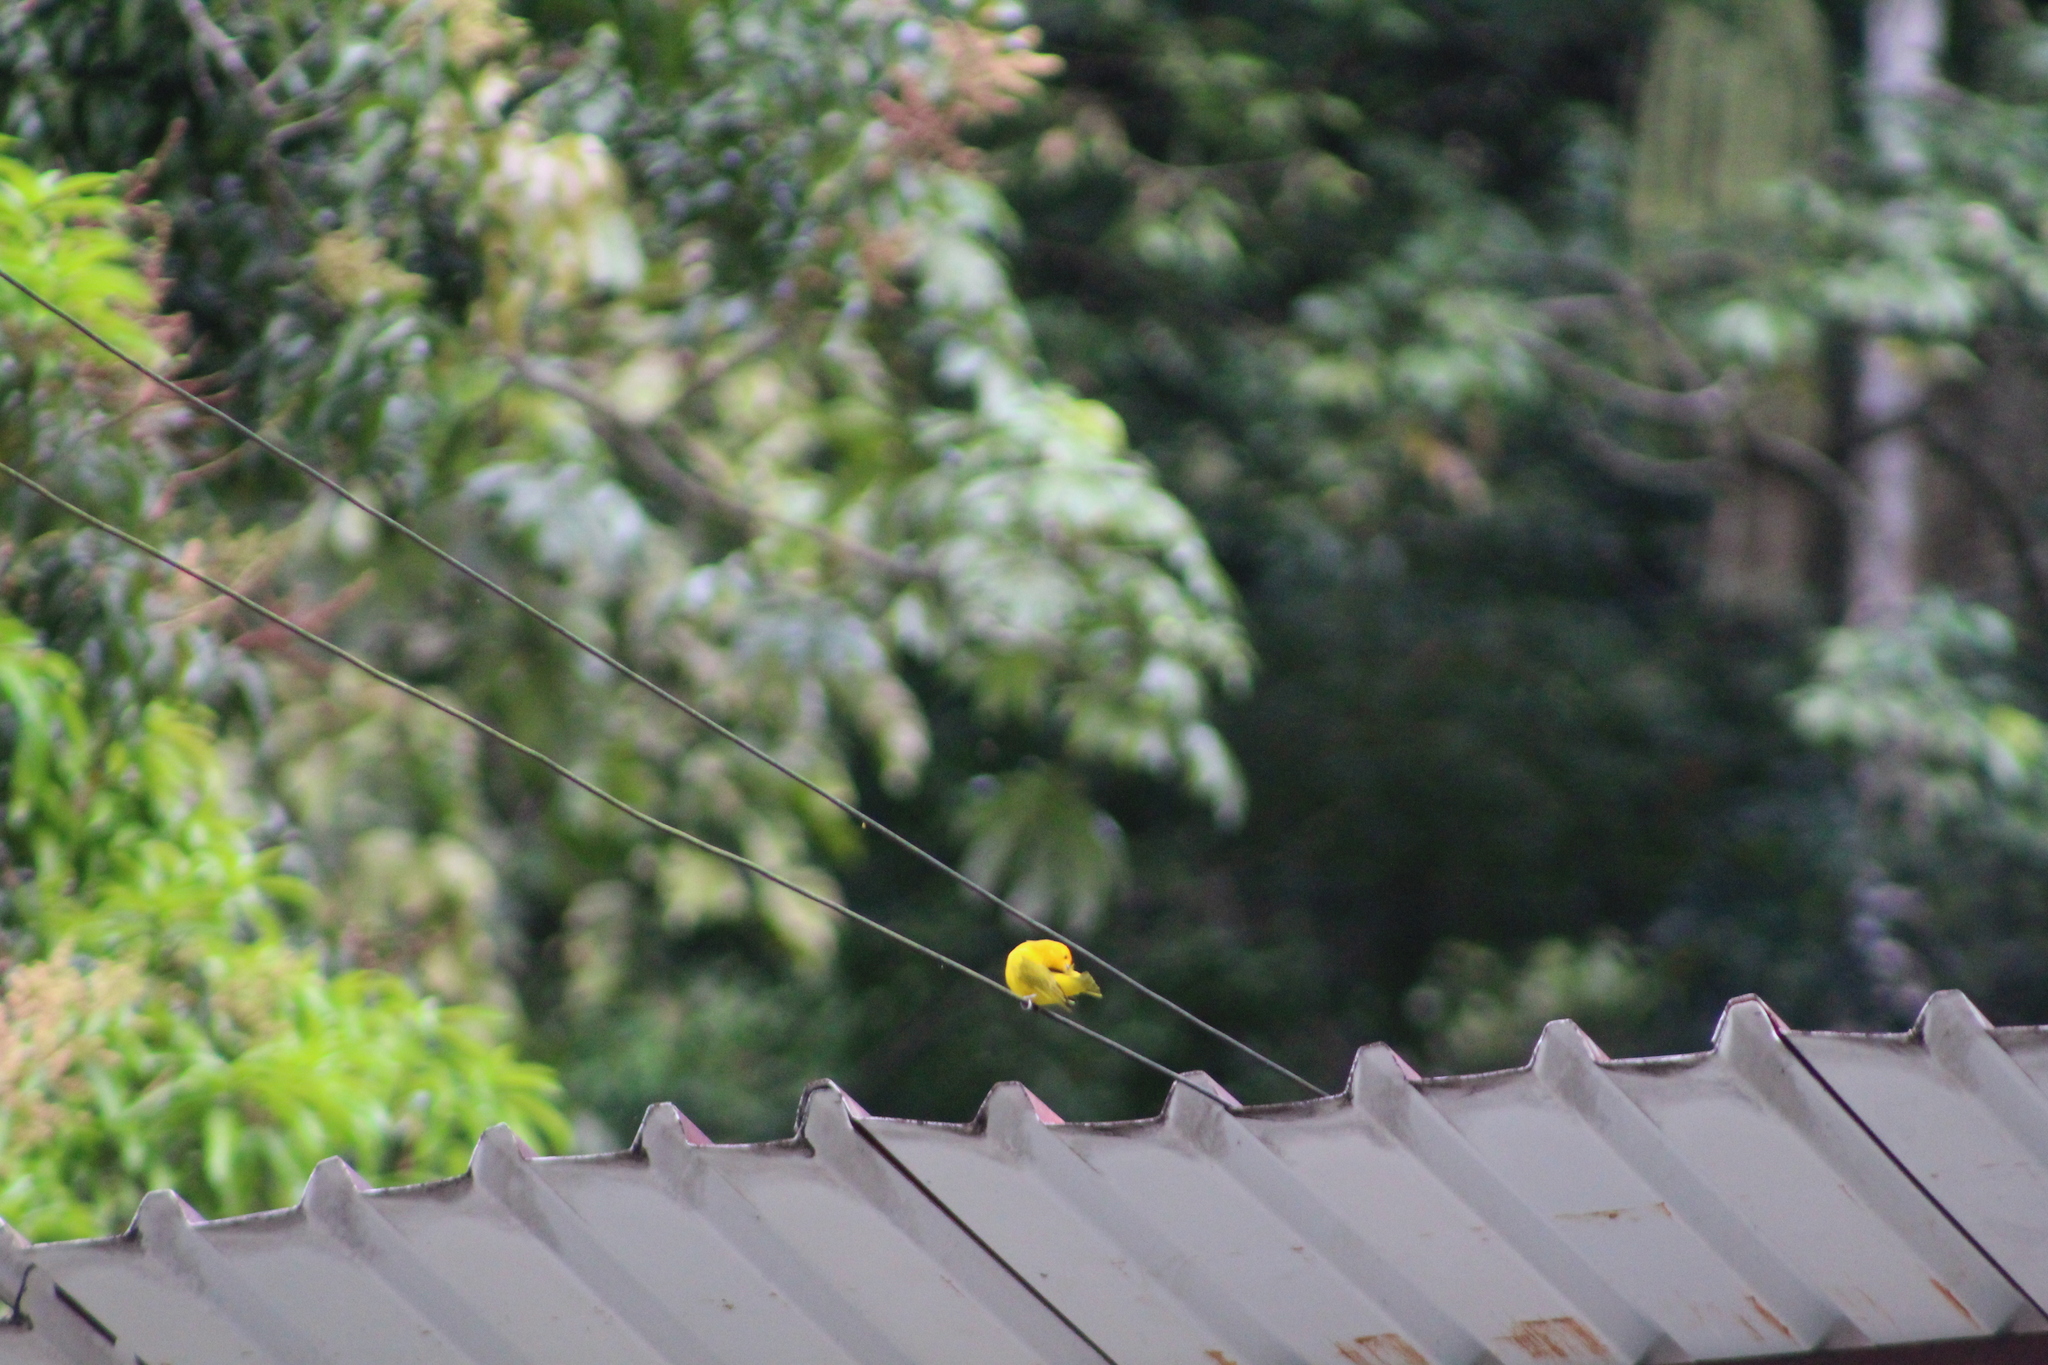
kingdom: Animalia
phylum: Chordata
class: Aves
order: Passeriformes
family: Thraupidae
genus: Sicalis
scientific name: Sicalis flaveola
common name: Saffron finch
